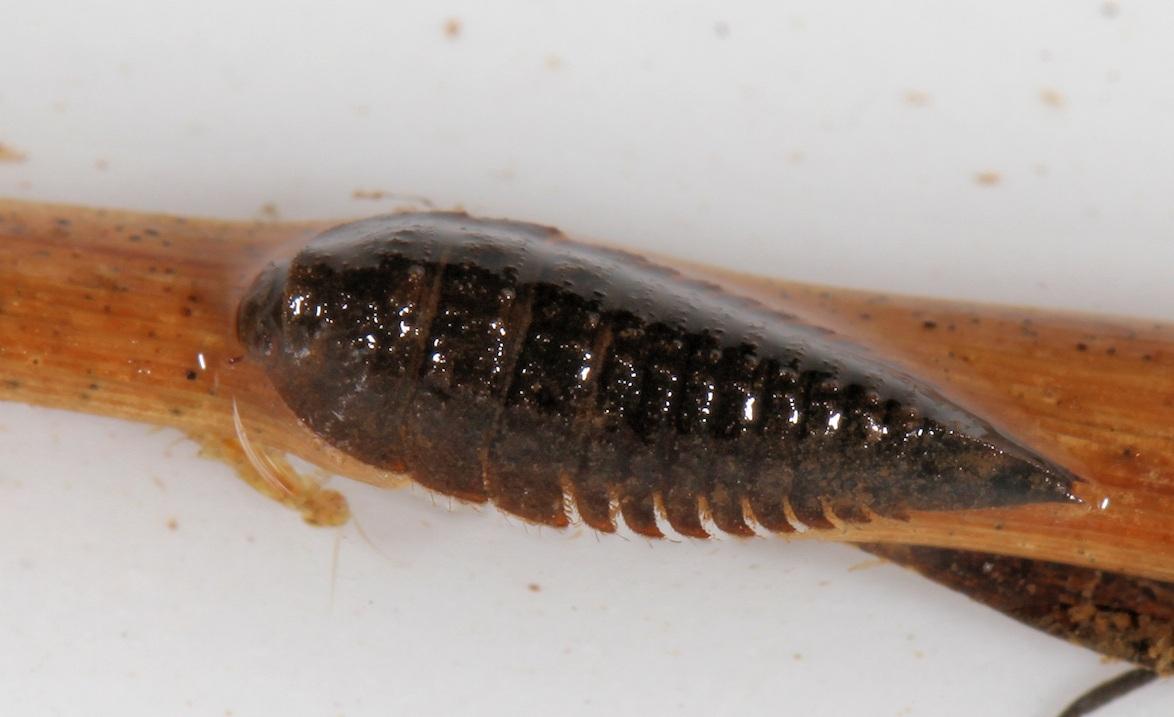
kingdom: Animalia
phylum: Arthropoda
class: Insecta
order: Coleoptera
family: Elmidae
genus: Potamodytes
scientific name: Potamodytes
